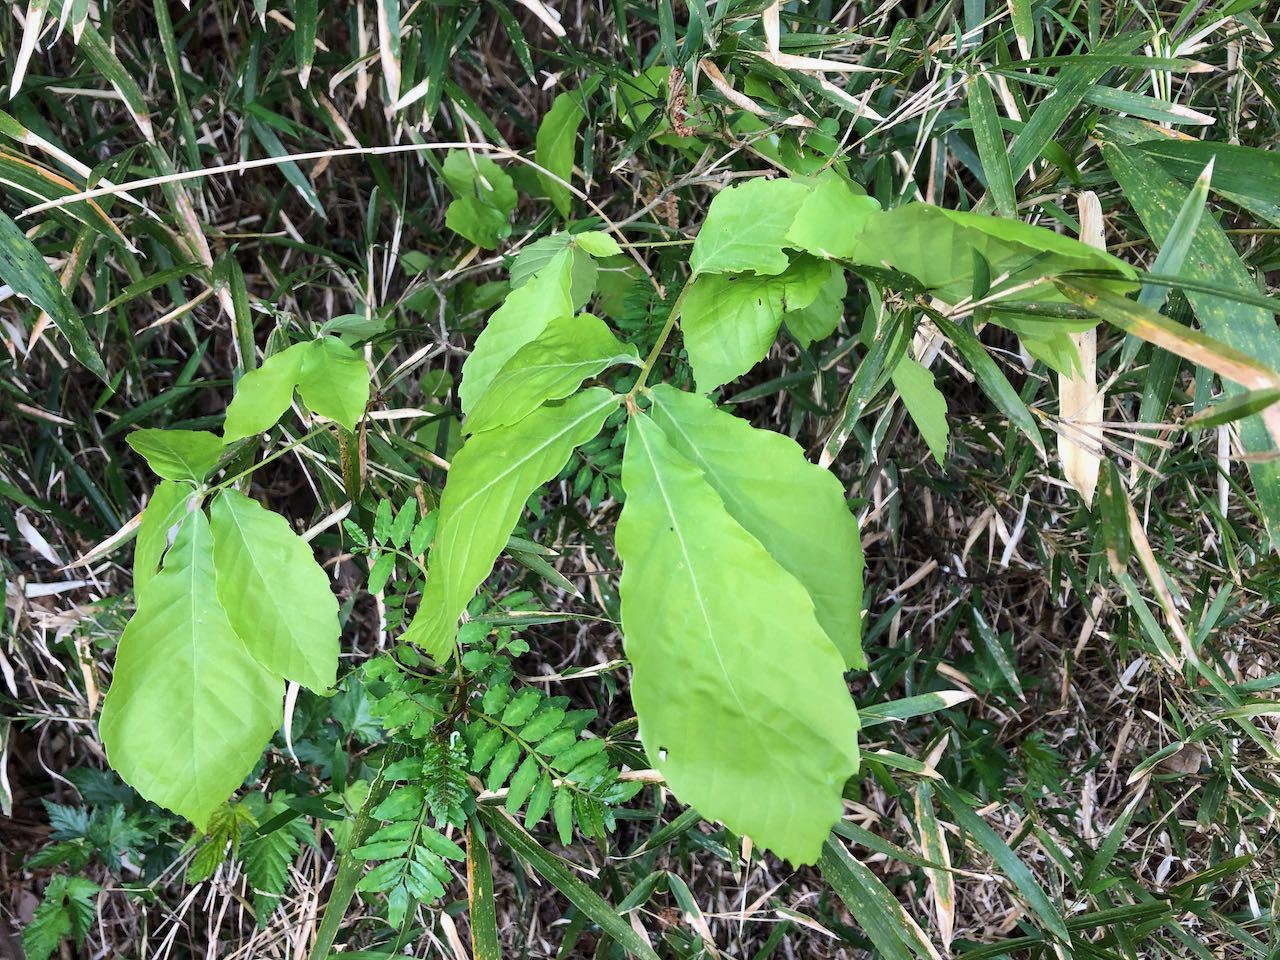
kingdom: Plantae
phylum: Tracheophyta
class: Magnoliopsida
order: Fagales
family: Fagaceae
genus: Quercus
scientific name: Quercus serrata
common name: Bao li
